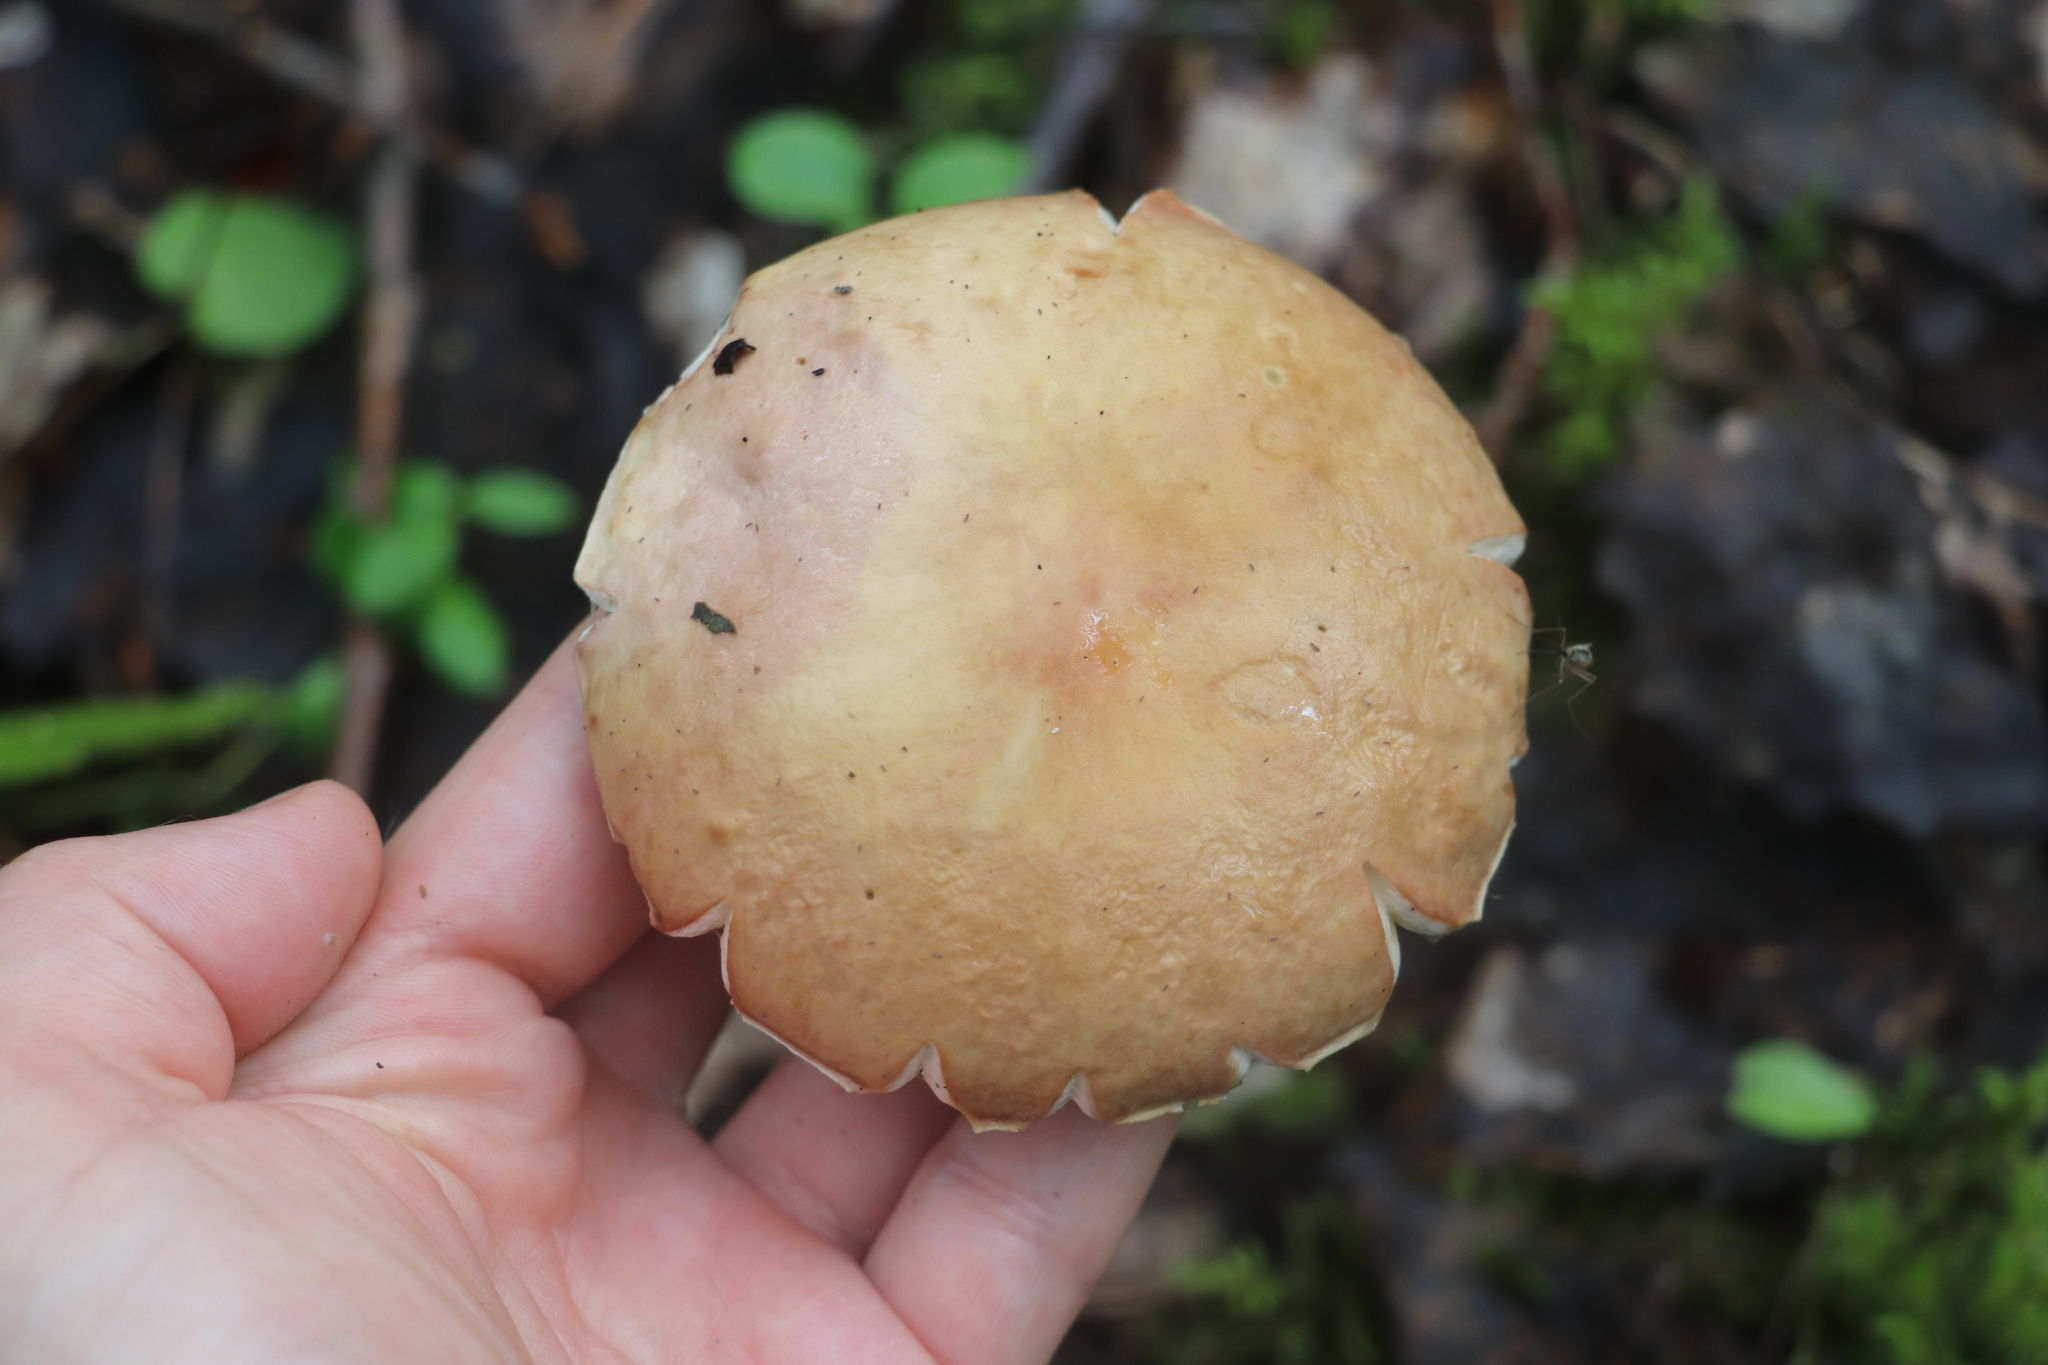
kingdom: Fungi
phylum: Basidiomycota
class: Agaricomycetes
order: Boletales
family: Boletaceae
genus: Boletus
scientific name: Boletus edulis
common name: Cep
